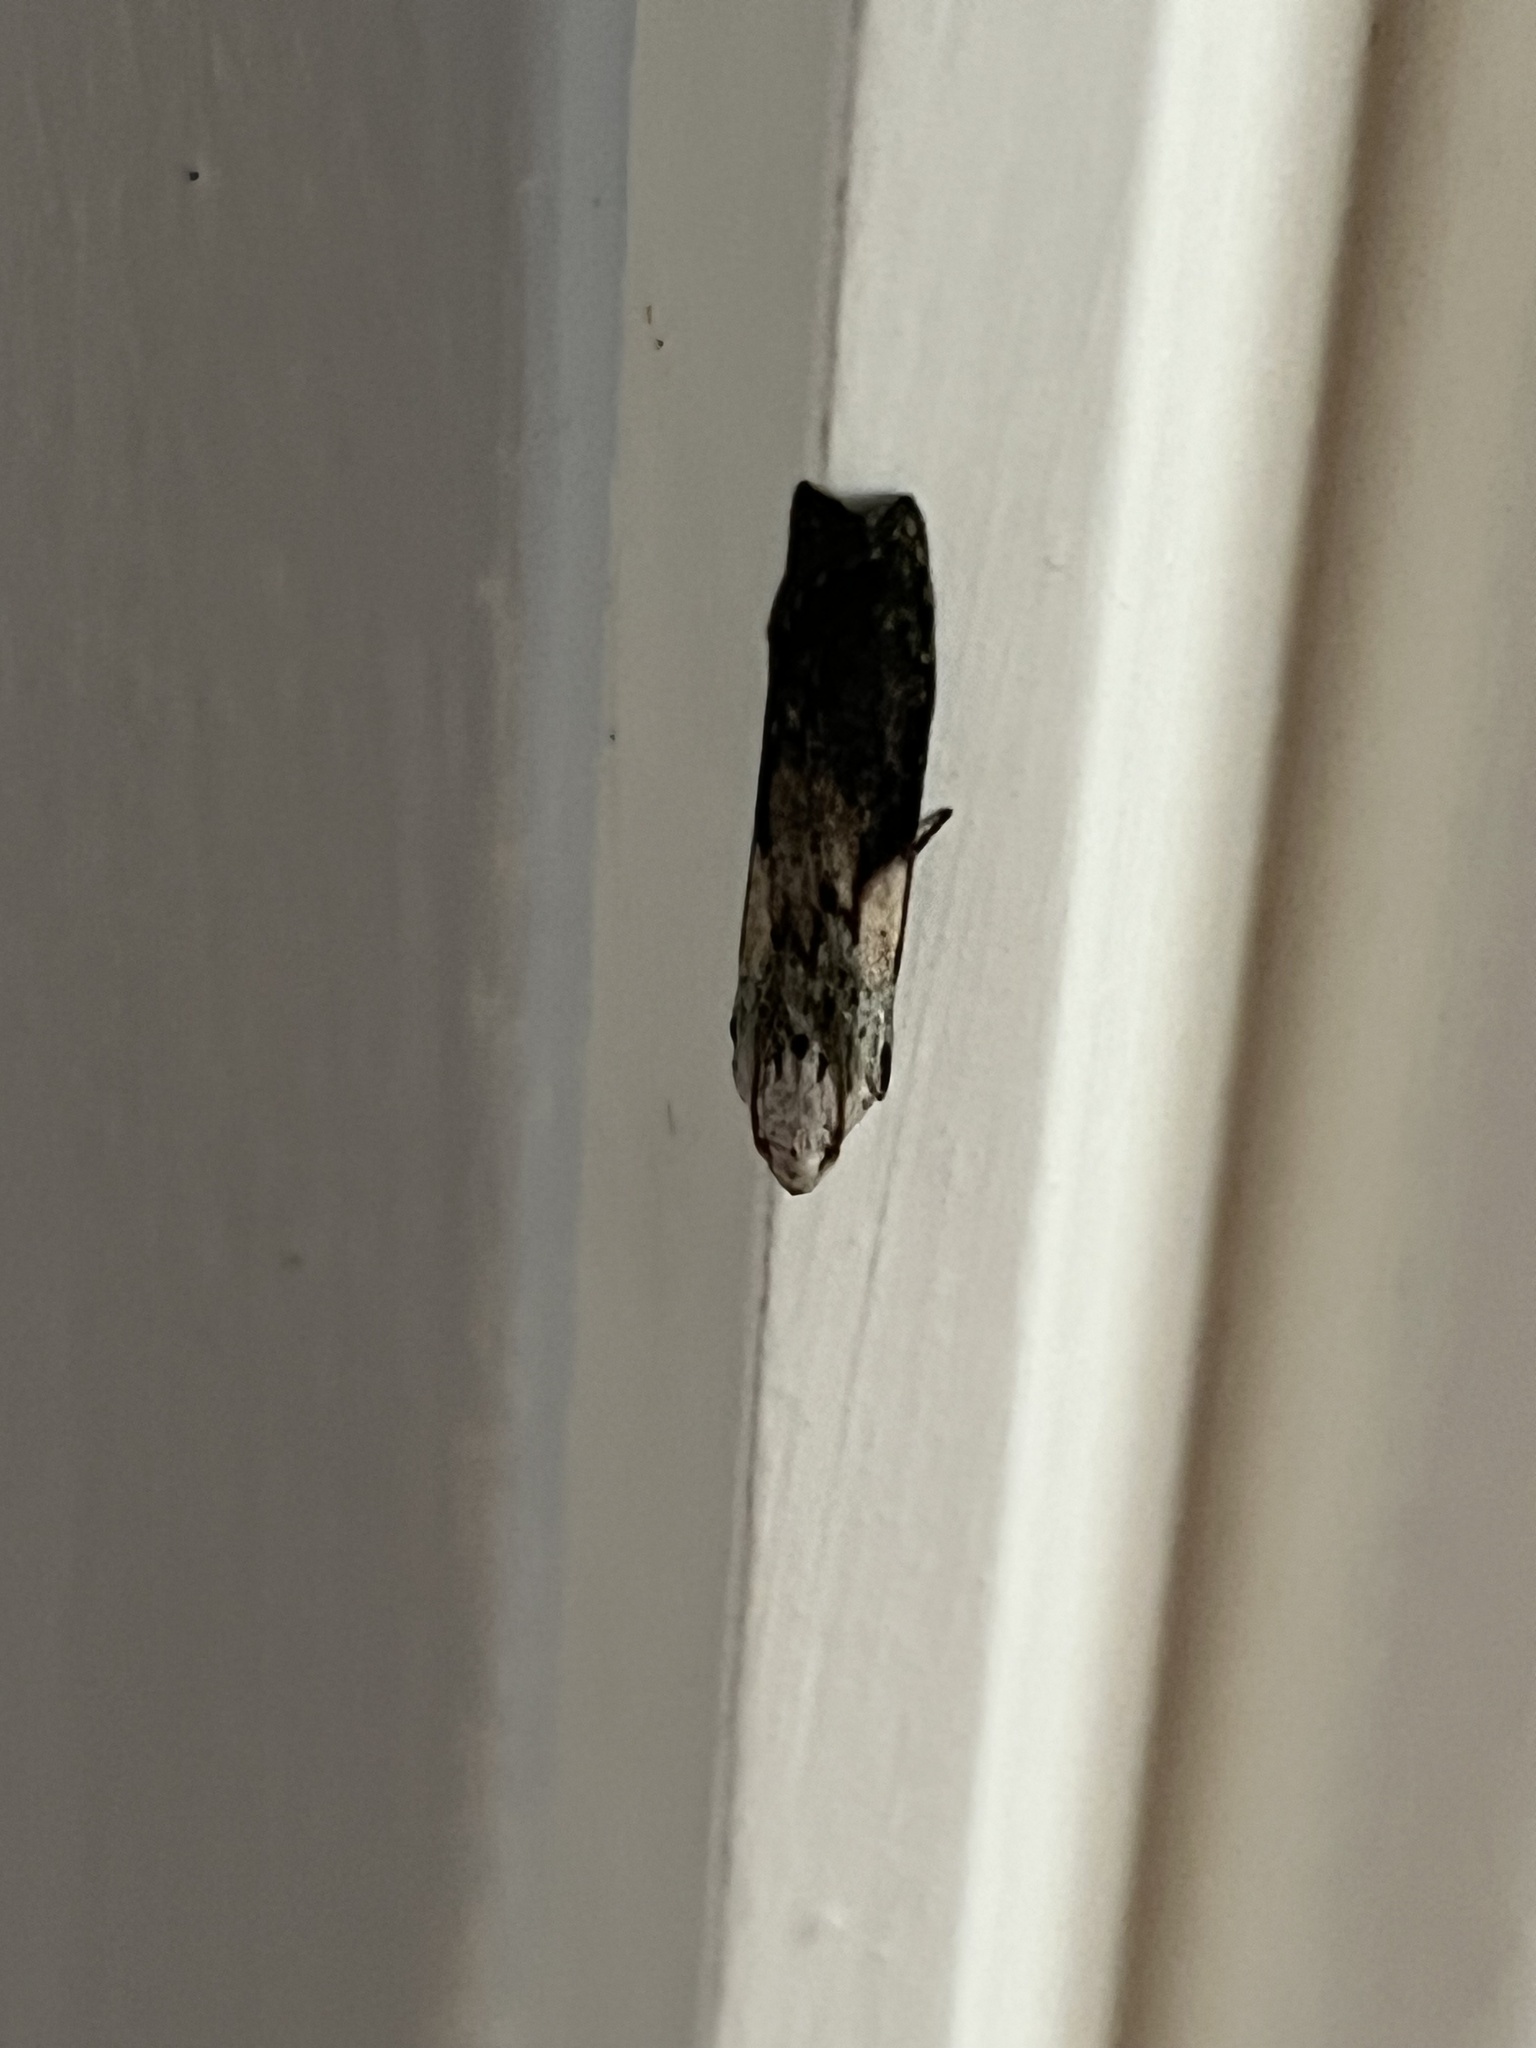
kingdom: Animalia
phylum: Arthropoda
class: Insecta
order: Lepidoptera
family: Pyralidae
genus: Aphomia
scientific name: Aphomia sociella
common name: Bee moth
